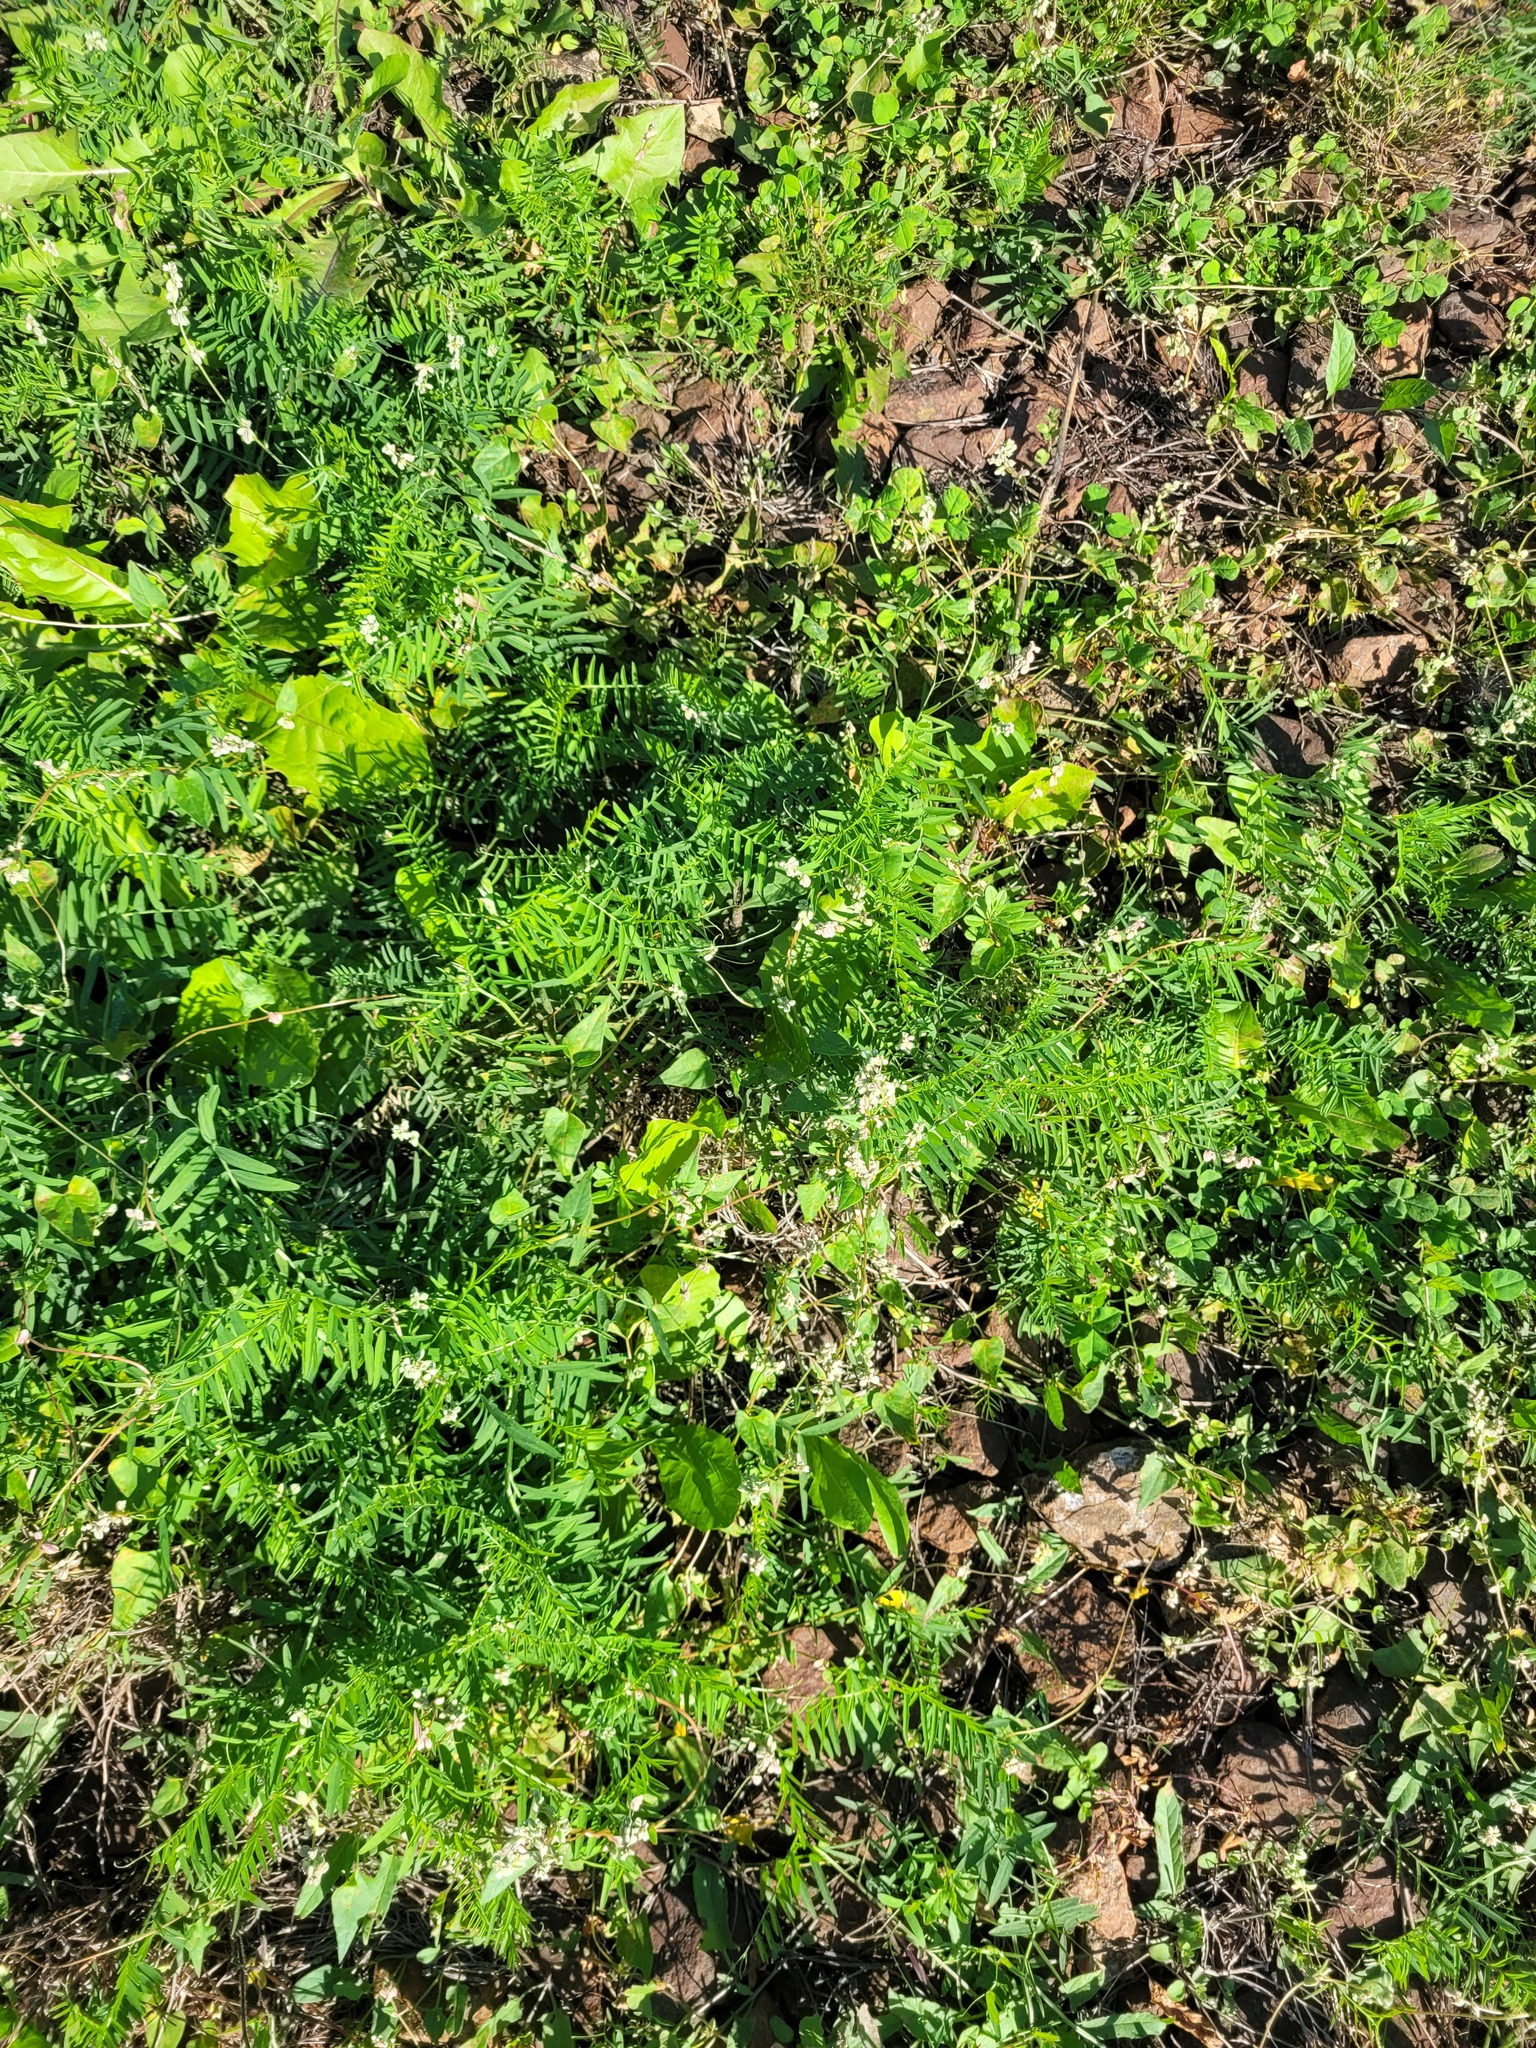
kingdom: Plantae
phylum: Tracheophyta
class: Magnoliopsida
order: Caryophyllales
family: Polygonaceae
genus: Fallopia
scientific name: Fallopia convolvulus
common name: Black bindweed
